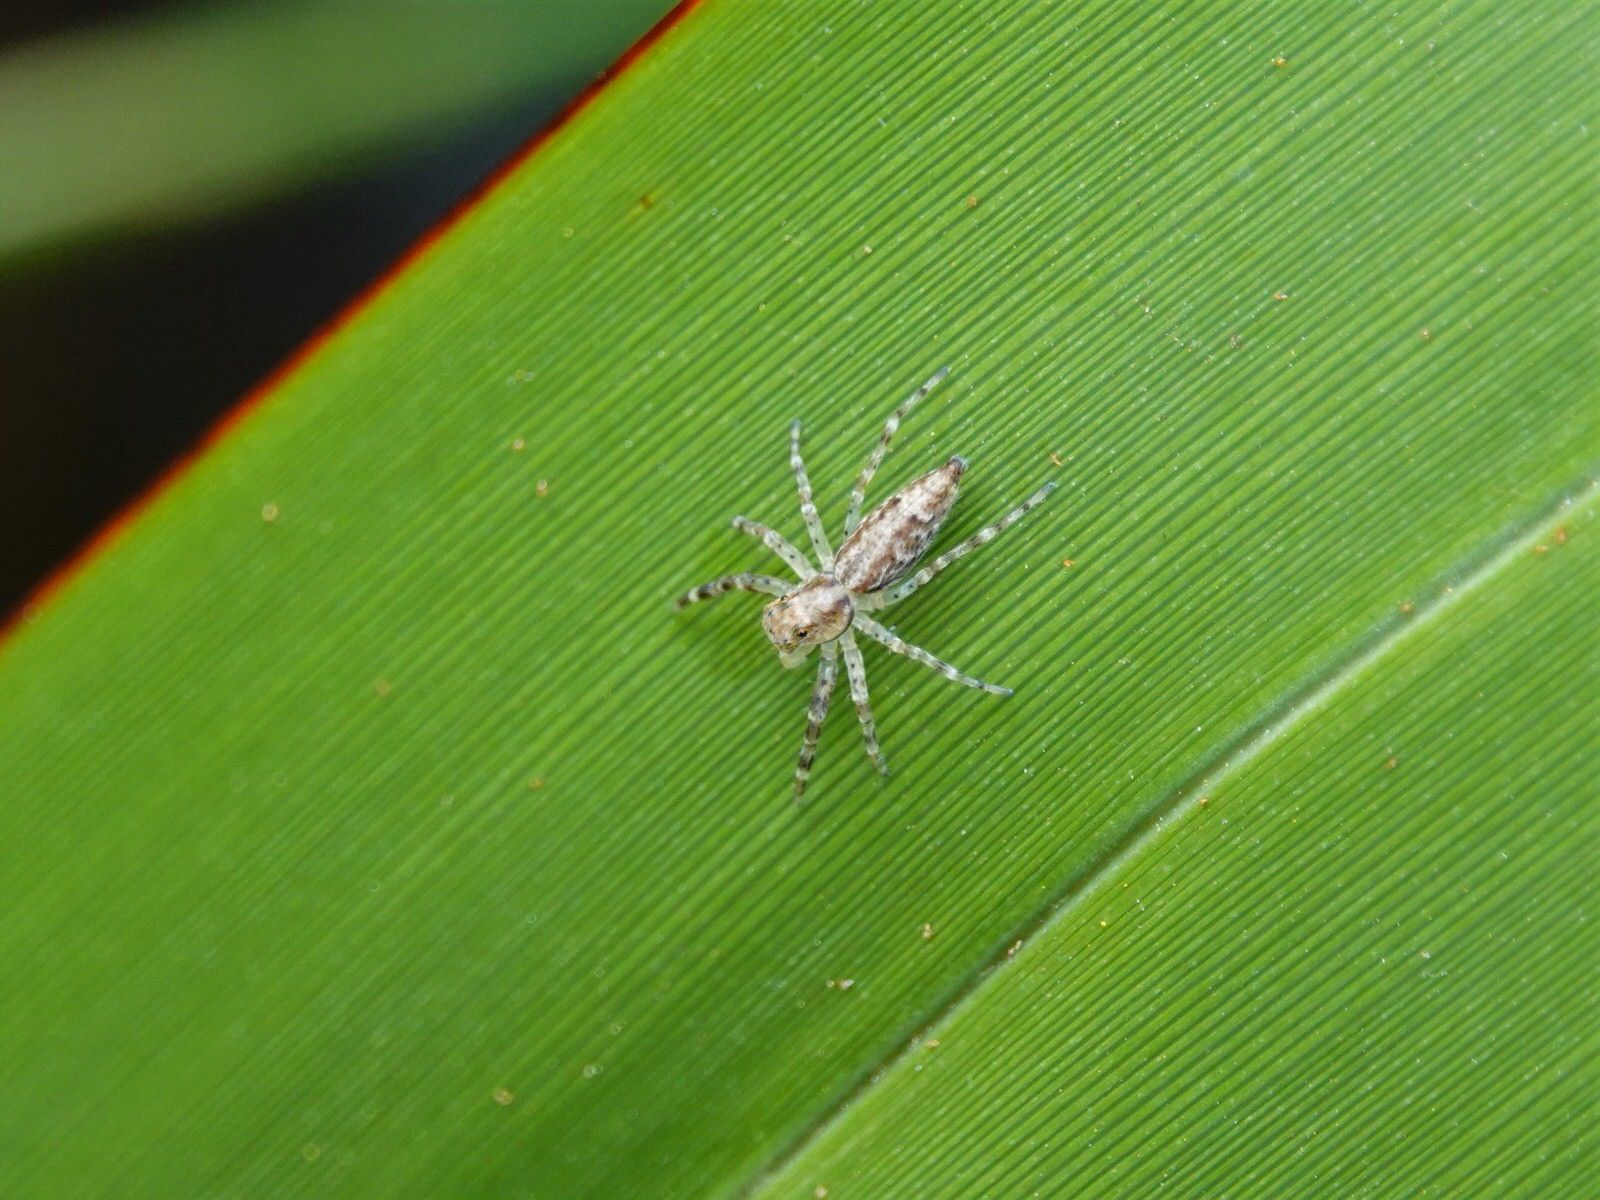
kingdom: Animalia
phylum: Arthropoda
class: Arachnida
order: Araneae
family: Salticidae
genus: Helpis
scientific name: Helpis minitabunda
